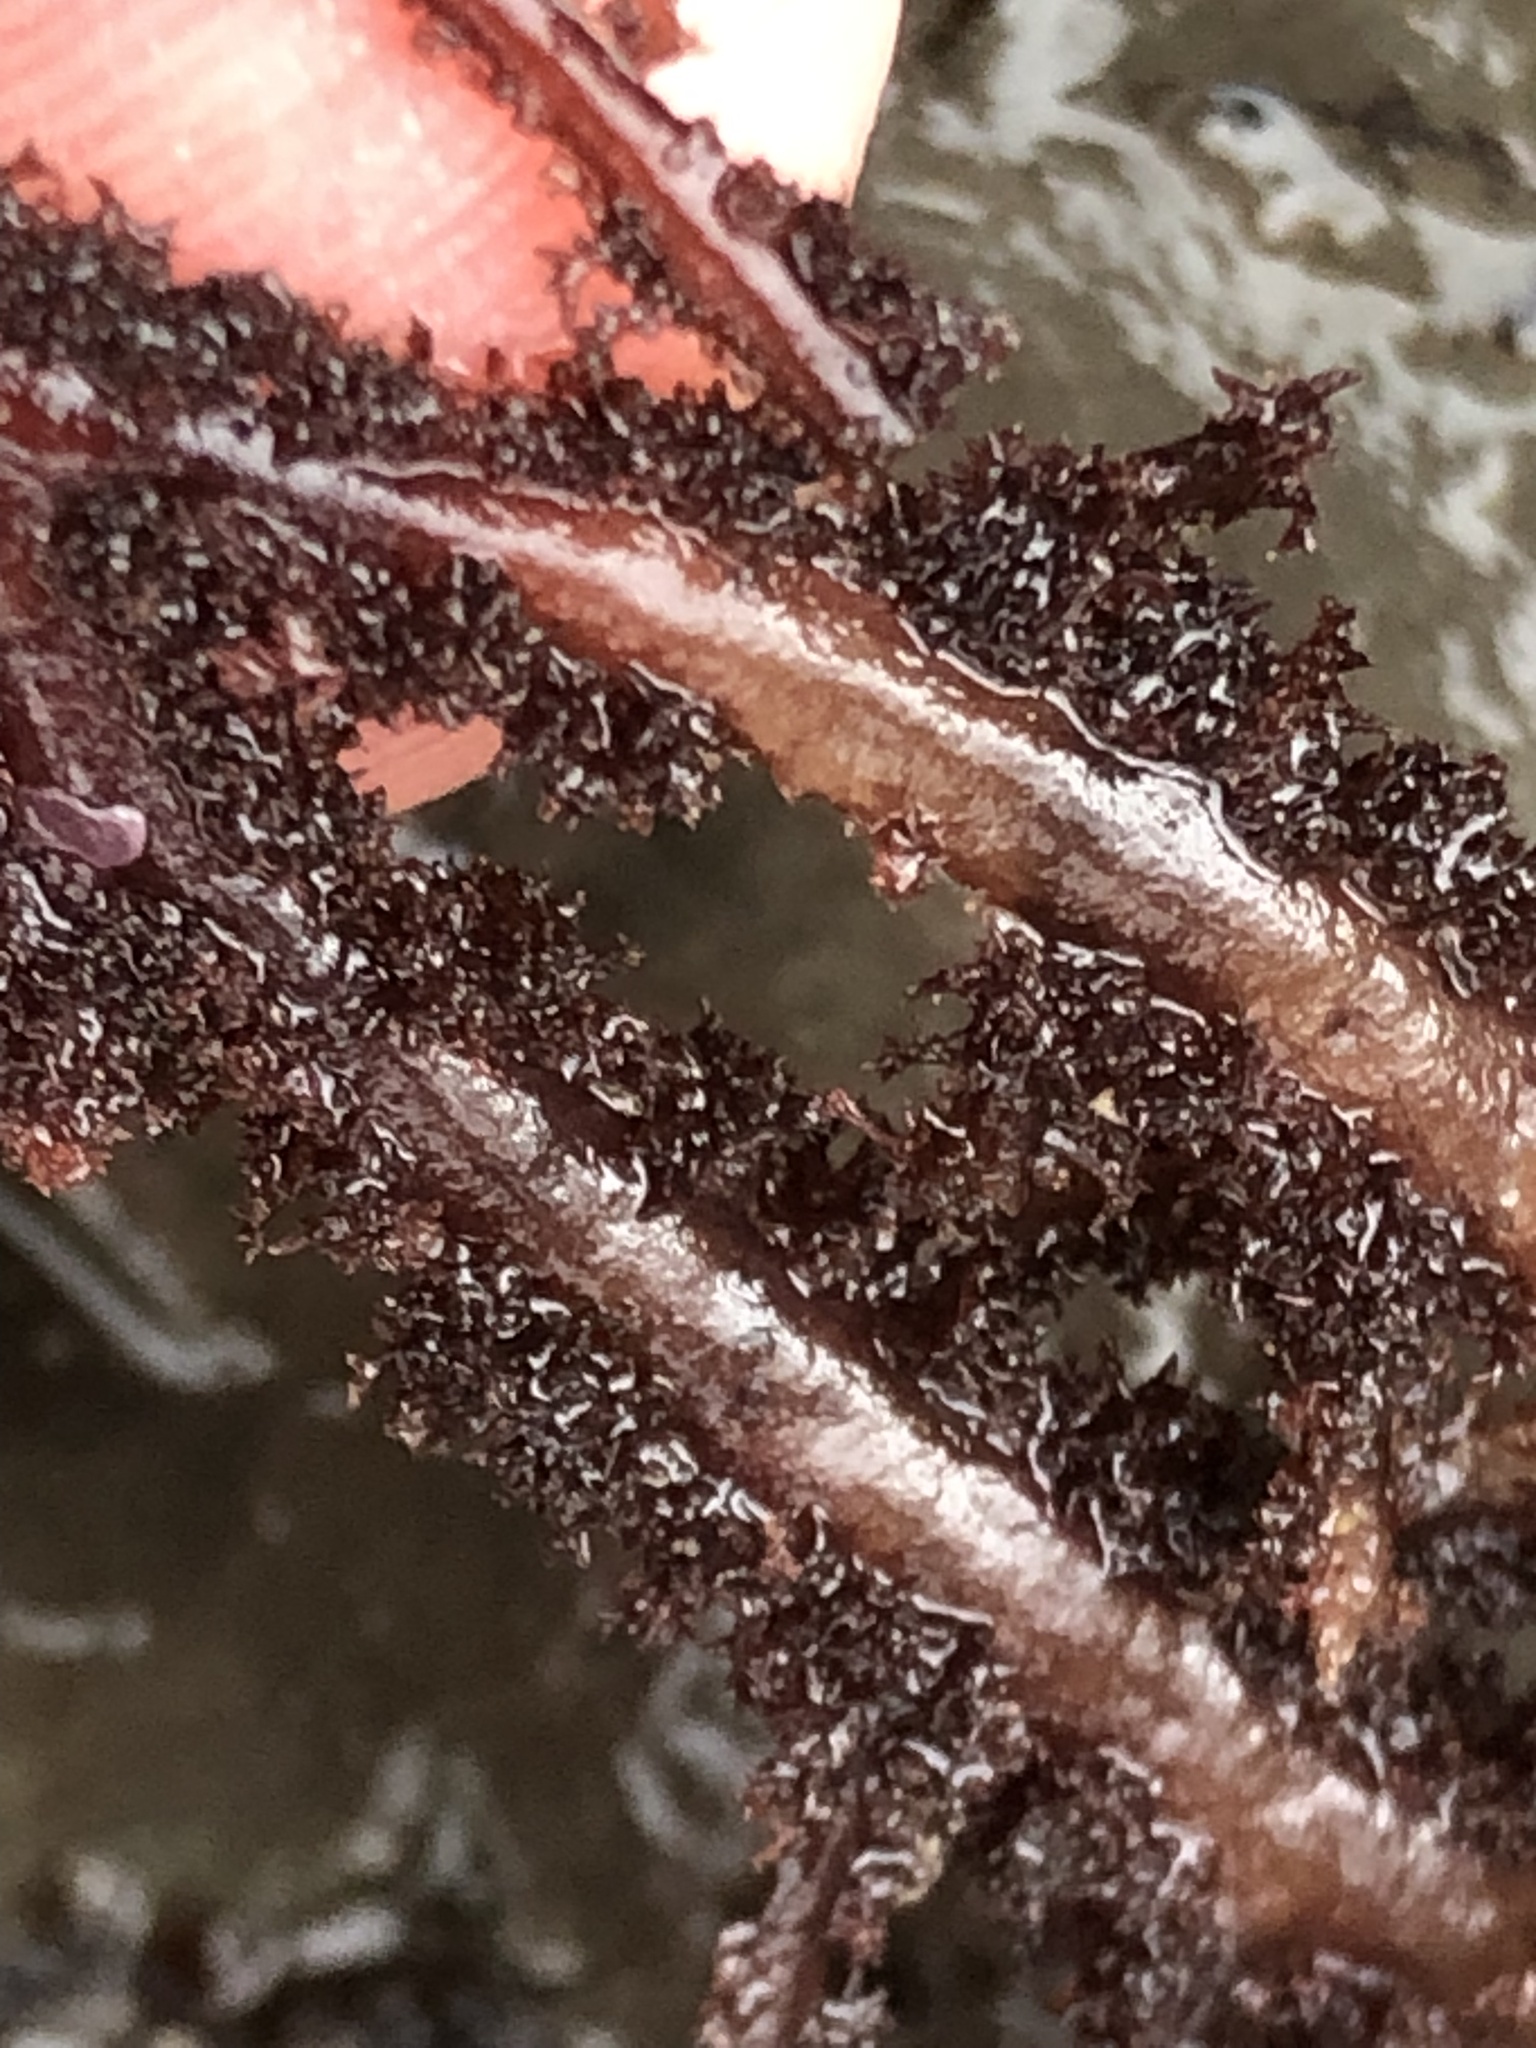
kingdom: Plantae
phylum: Rhodophyta
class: Florideophyceae
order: Ceramiales
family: Wrangeliaceae
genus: Neoptilota
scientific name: Neoptilota densa
